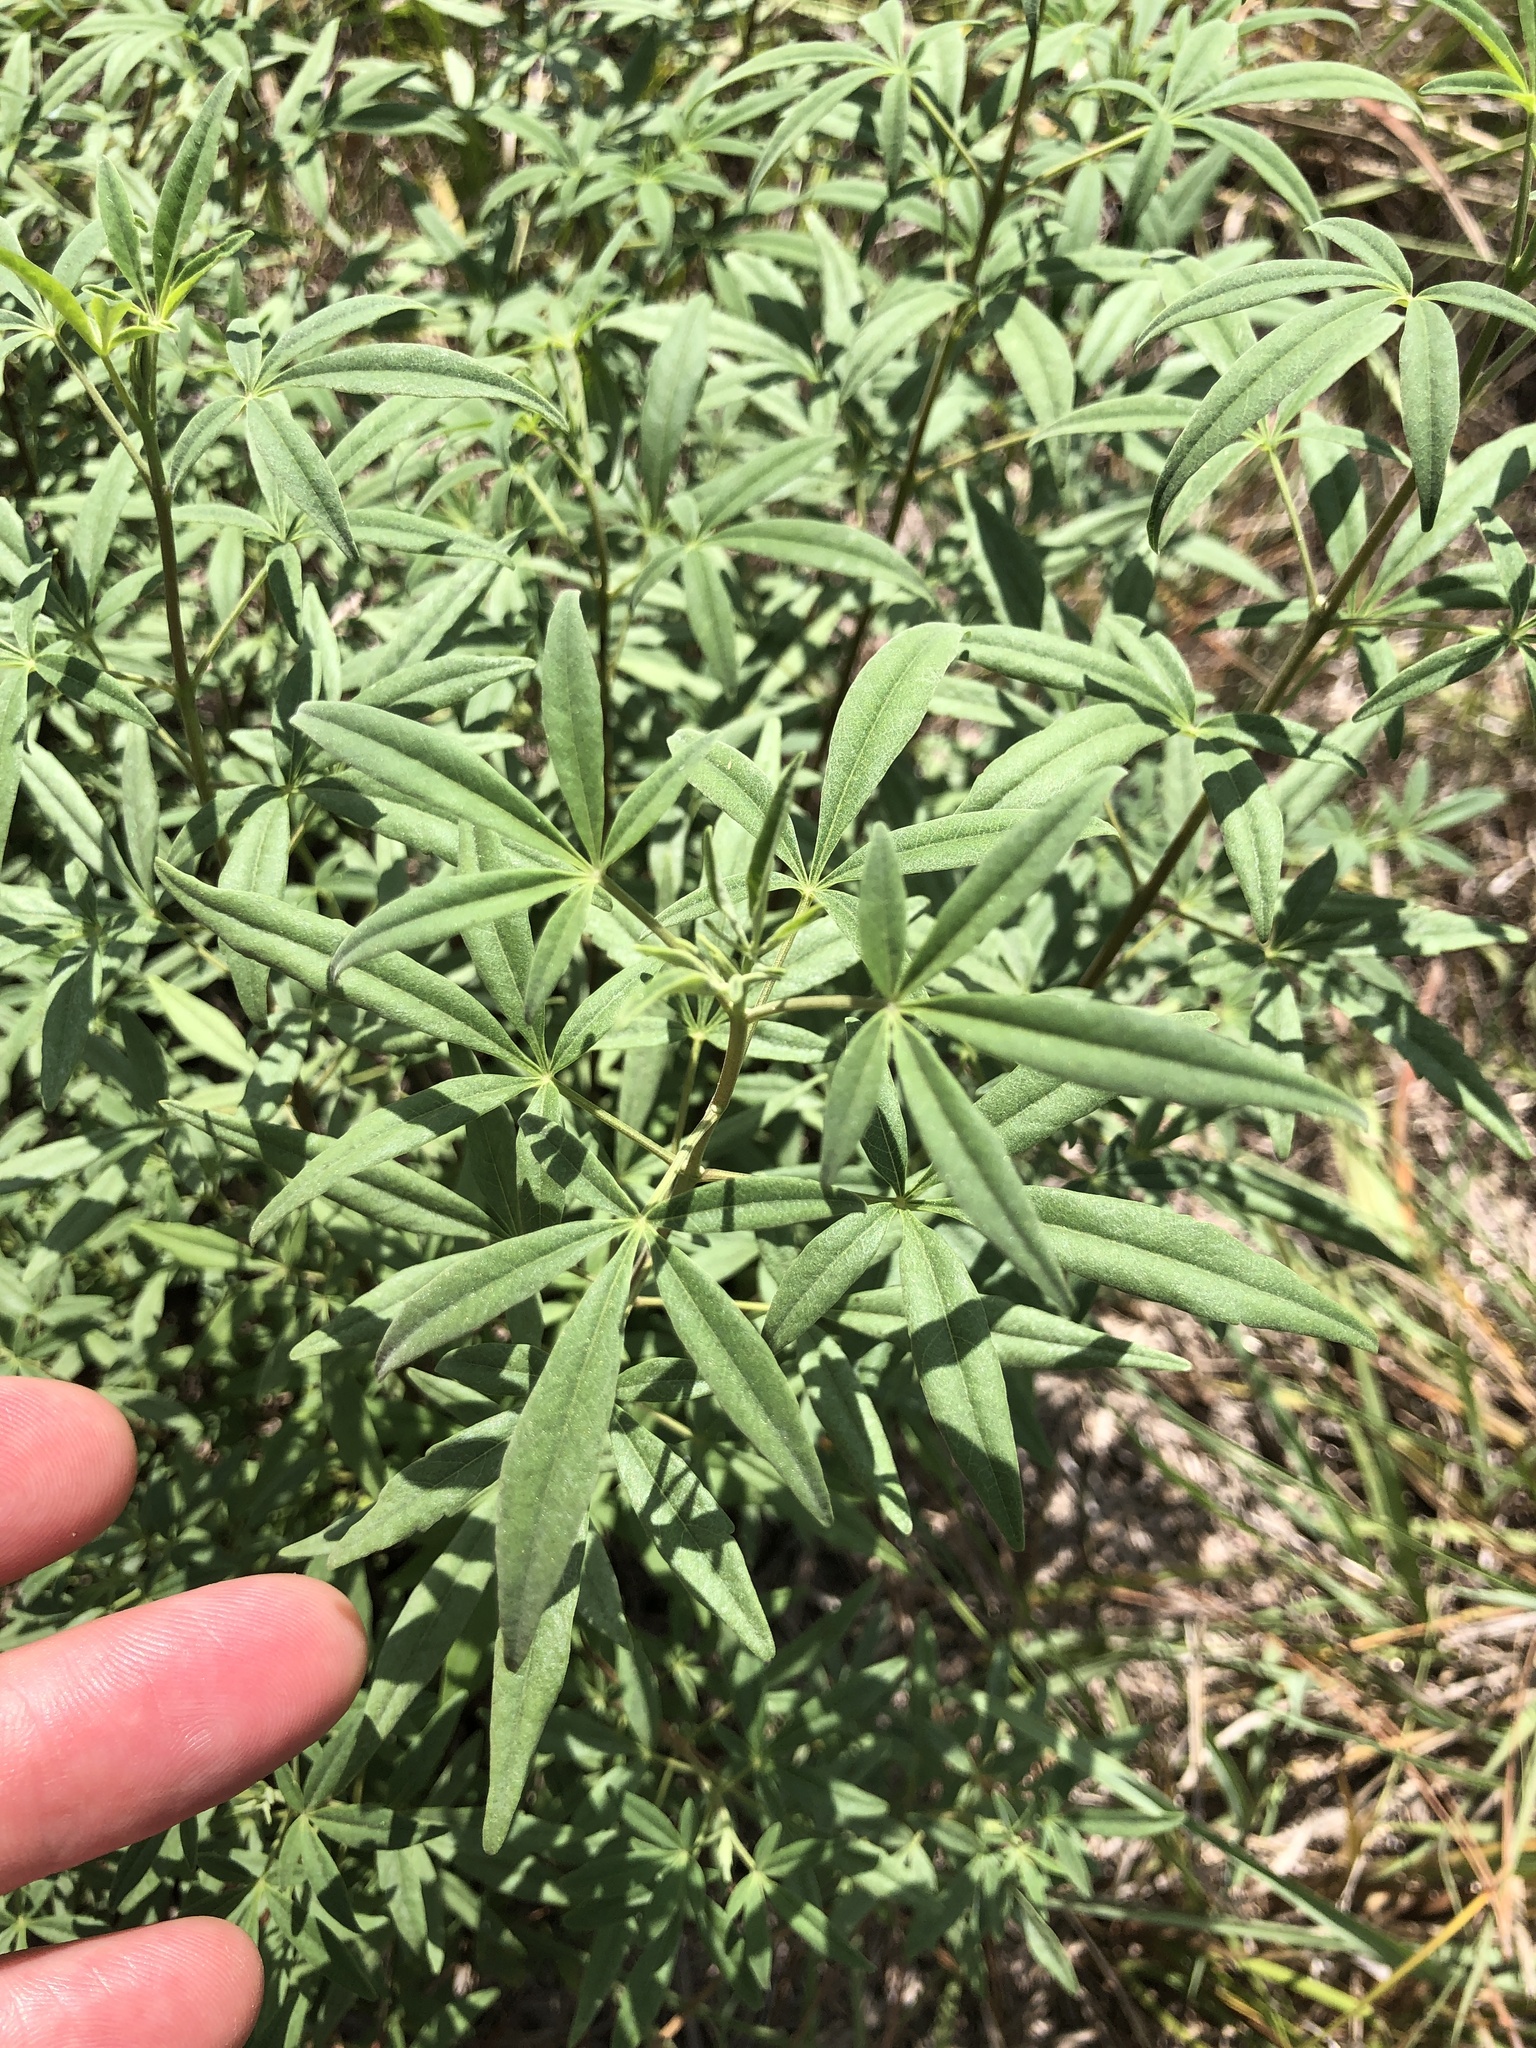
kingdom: Plantae
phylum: Tracheophyta
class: Magnoliopsida
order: Lamiales
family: Lamiaceae
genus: Vitex
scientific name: Vitex agnus-castus
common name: Chasteberry
